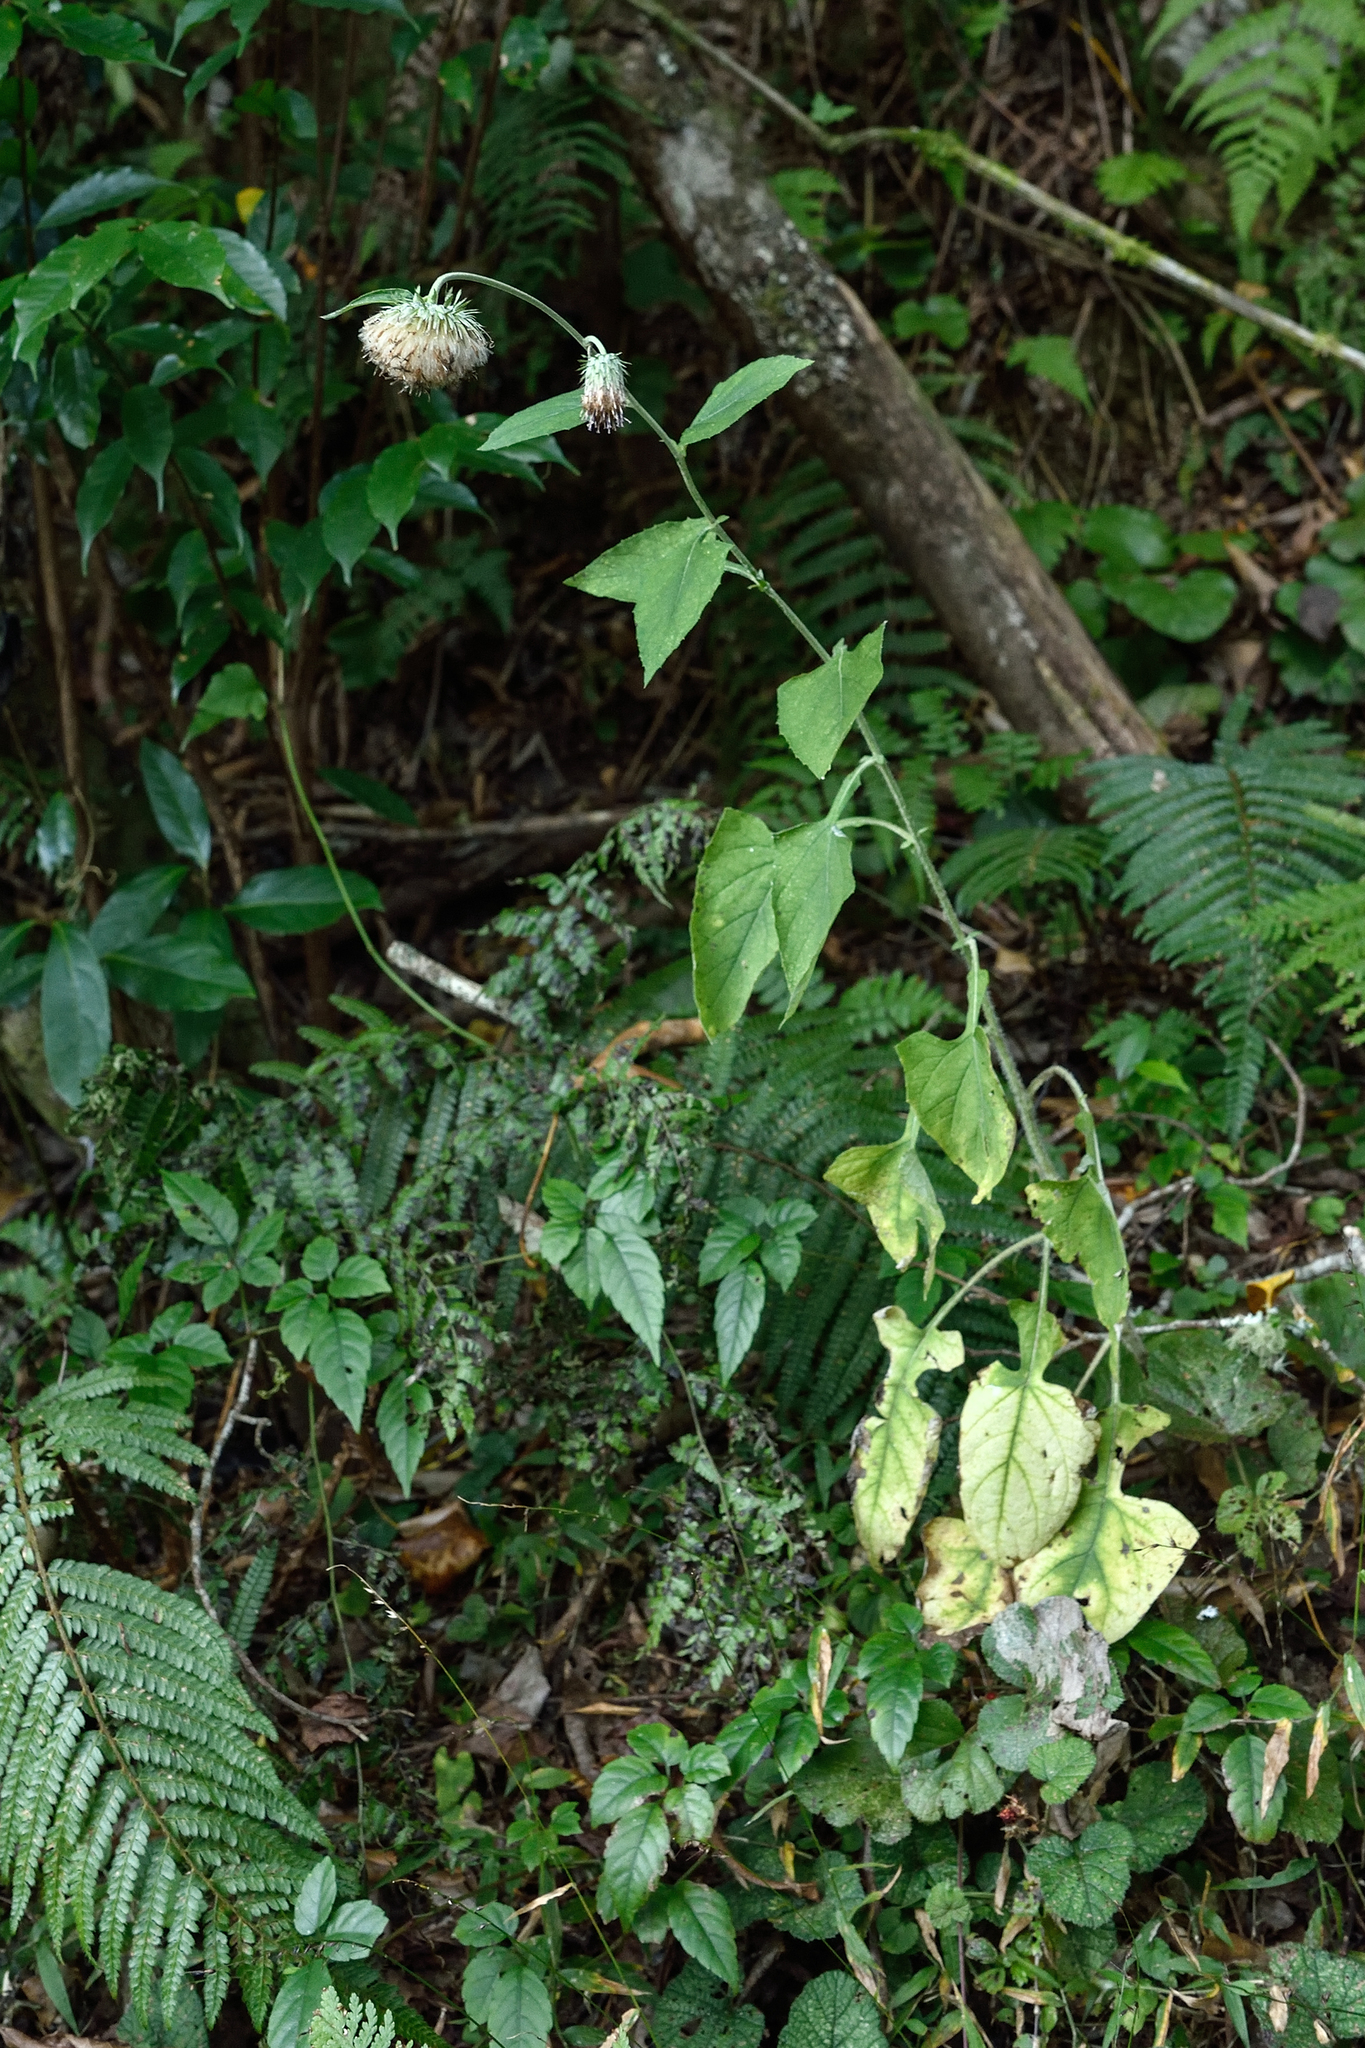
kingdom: Plantae
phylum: Tracheophyta
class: Magnoliopsida
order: Asterales
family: Asteraceae
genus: Jurinea
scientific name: Jurinea deltoidea
